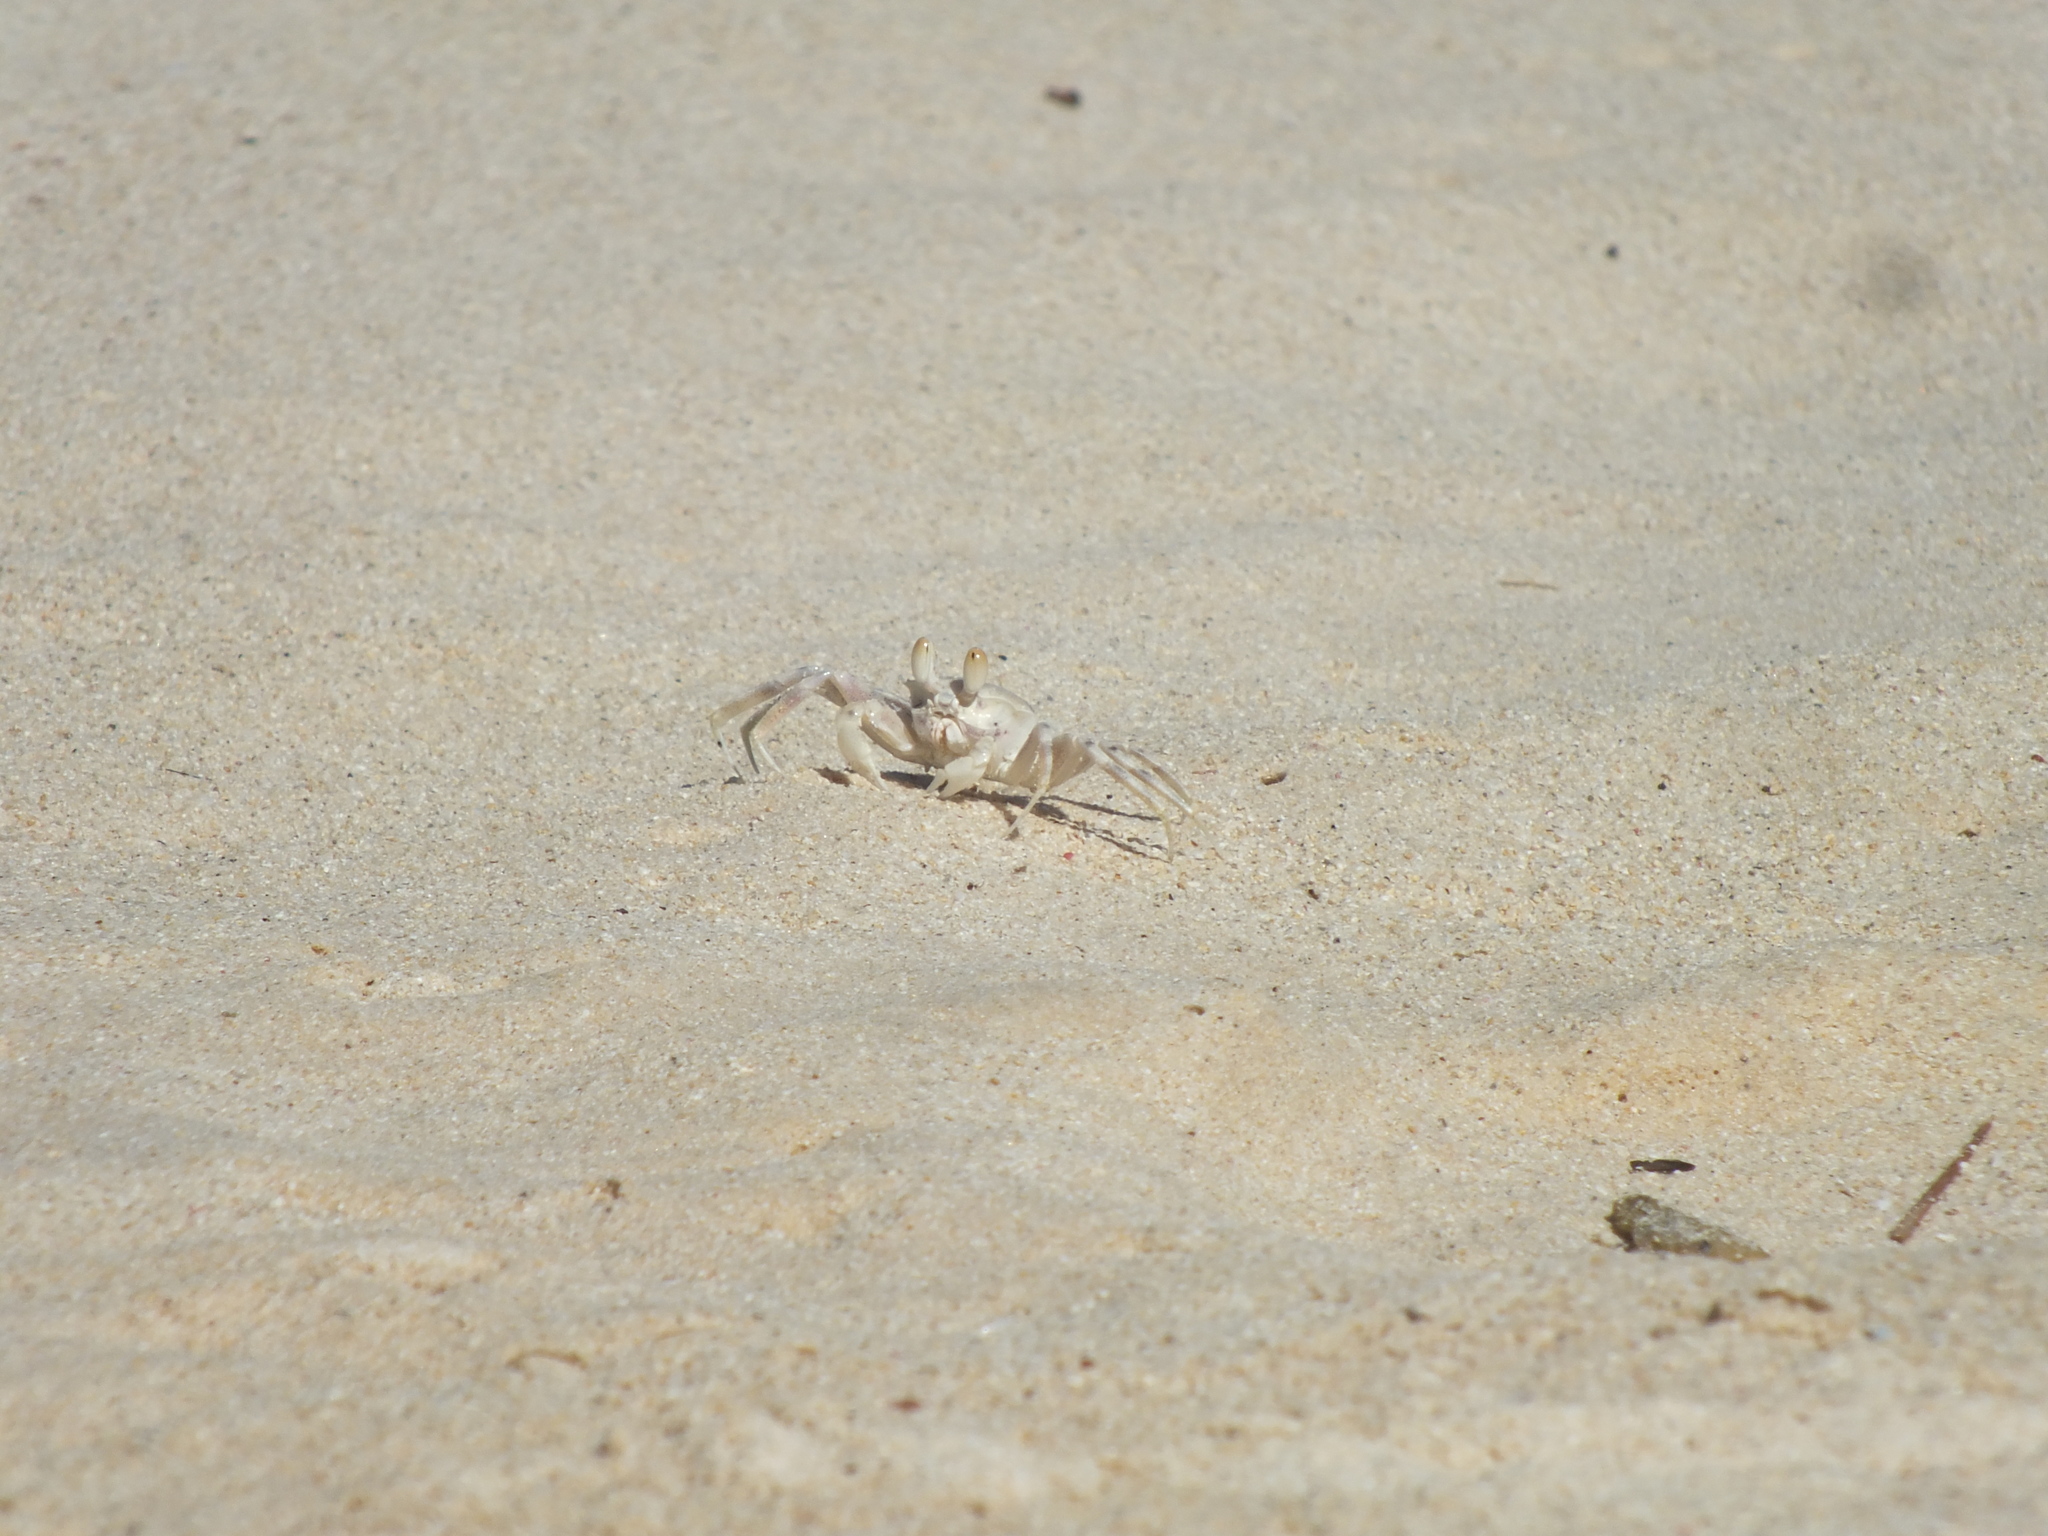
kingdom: Animalia
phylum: Arthropoda
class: Malacostraca
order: Decapoda
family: Ocypodidae
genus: Ocypode
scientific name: Ocypode pallidula
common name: Pallid ghost crab
